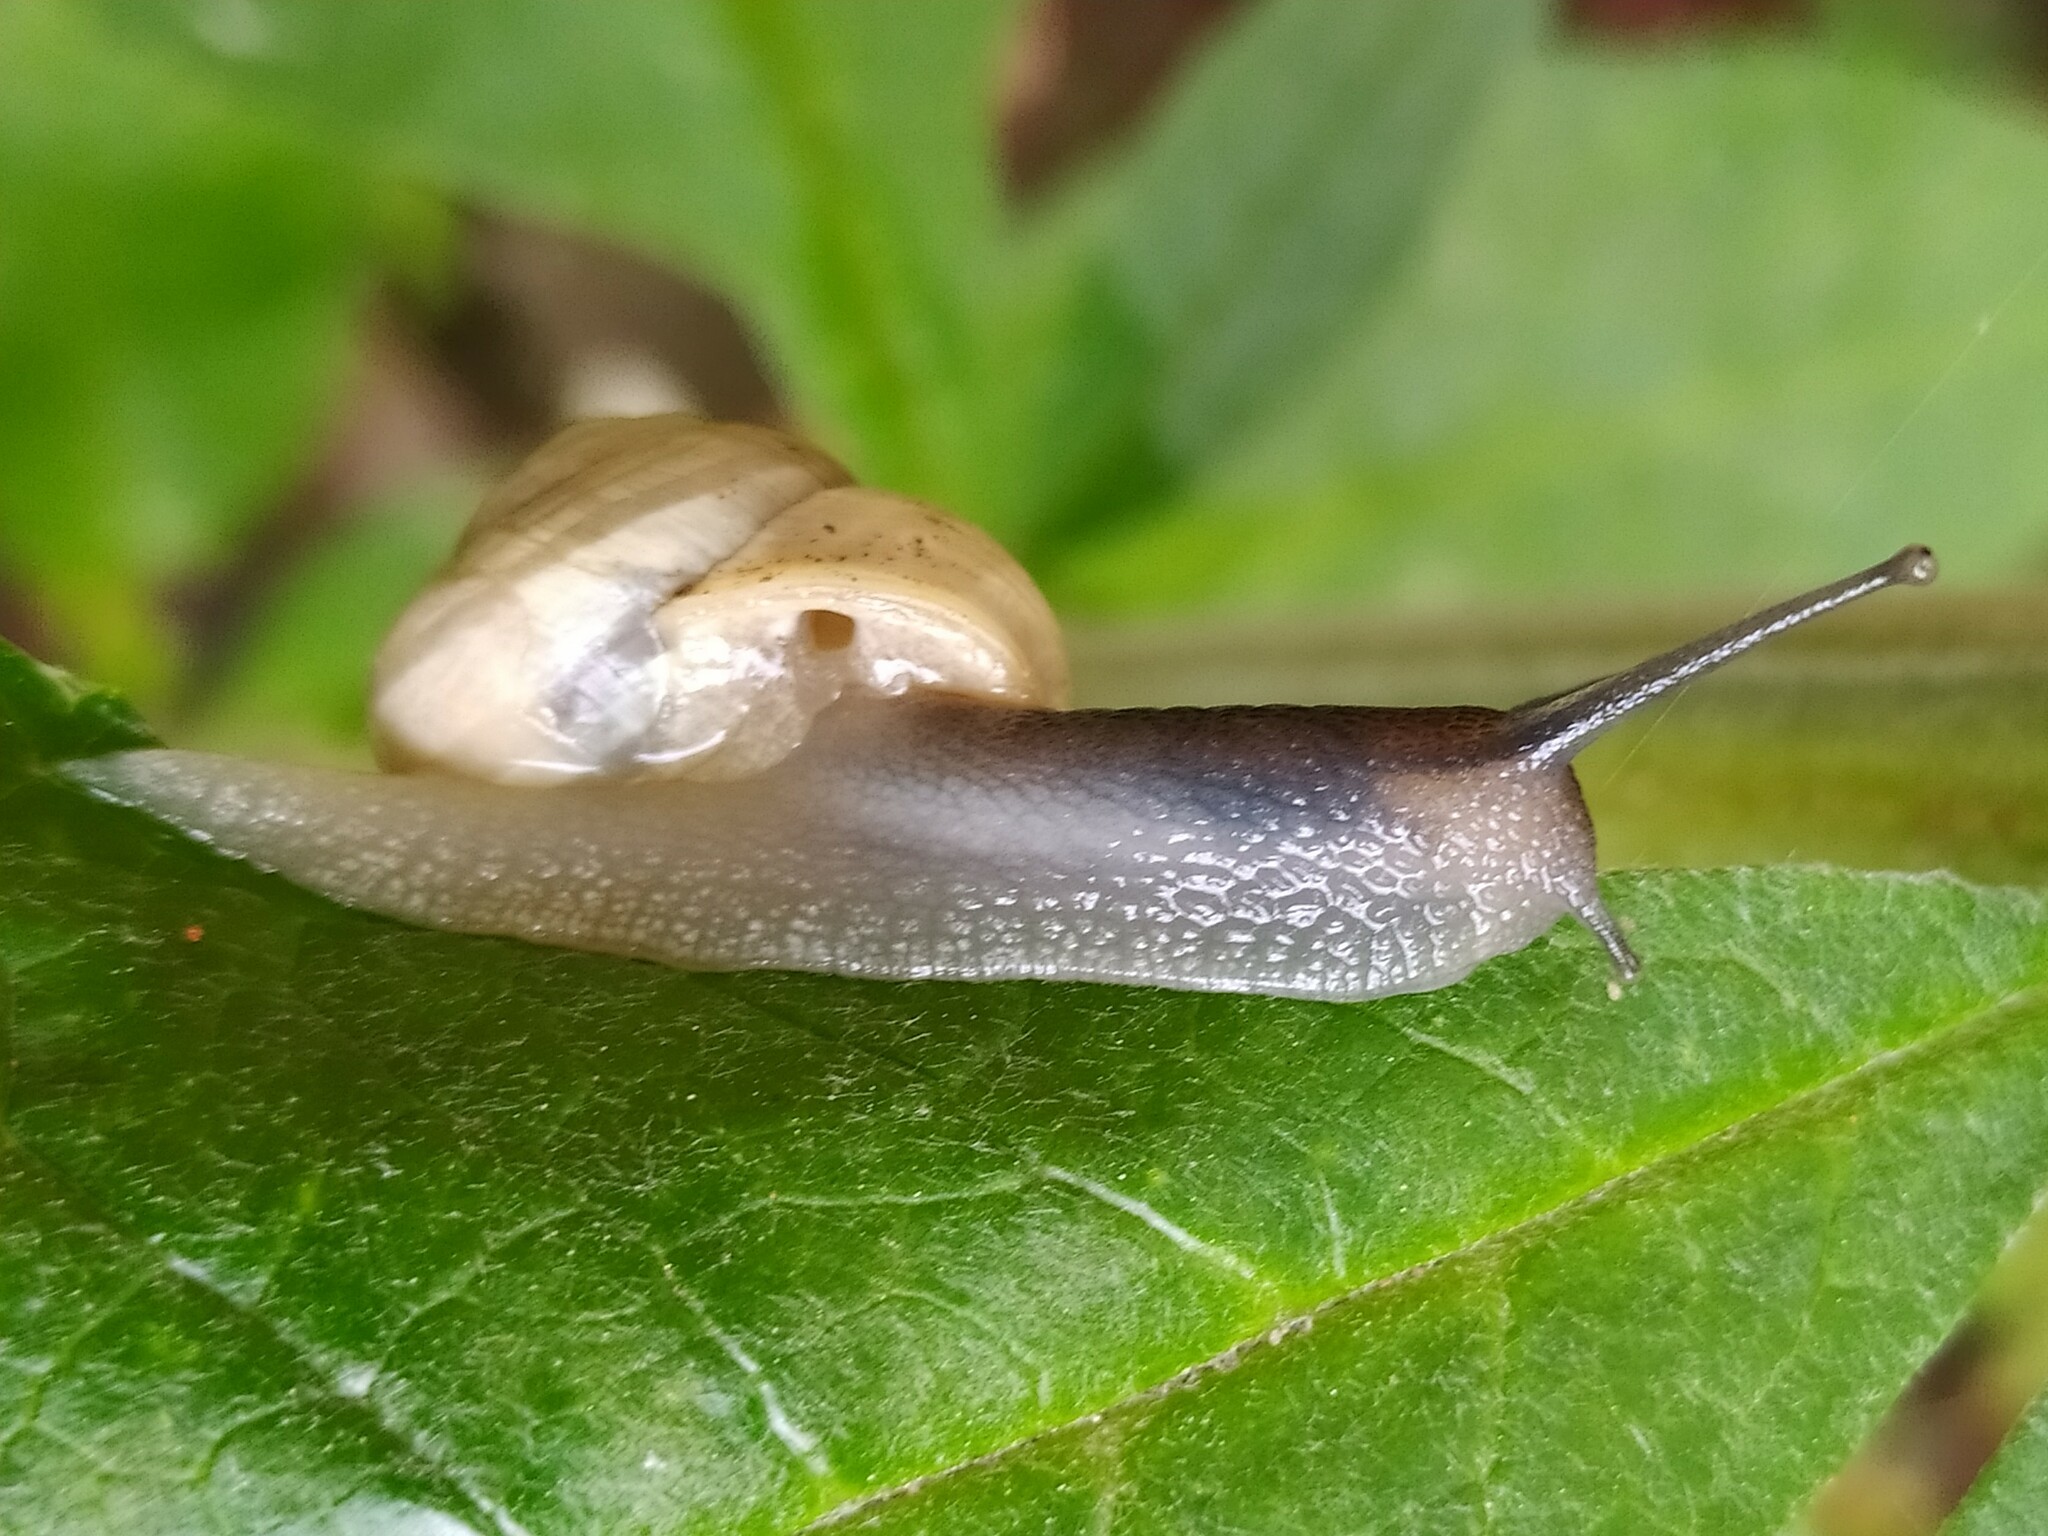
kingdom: Animalia
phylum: Mollusca
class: Gastropoda
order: Stylommatophora
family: Helicidae
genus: Cepaea
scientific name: Cepaea hortensis
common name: White-lip gardensnail
